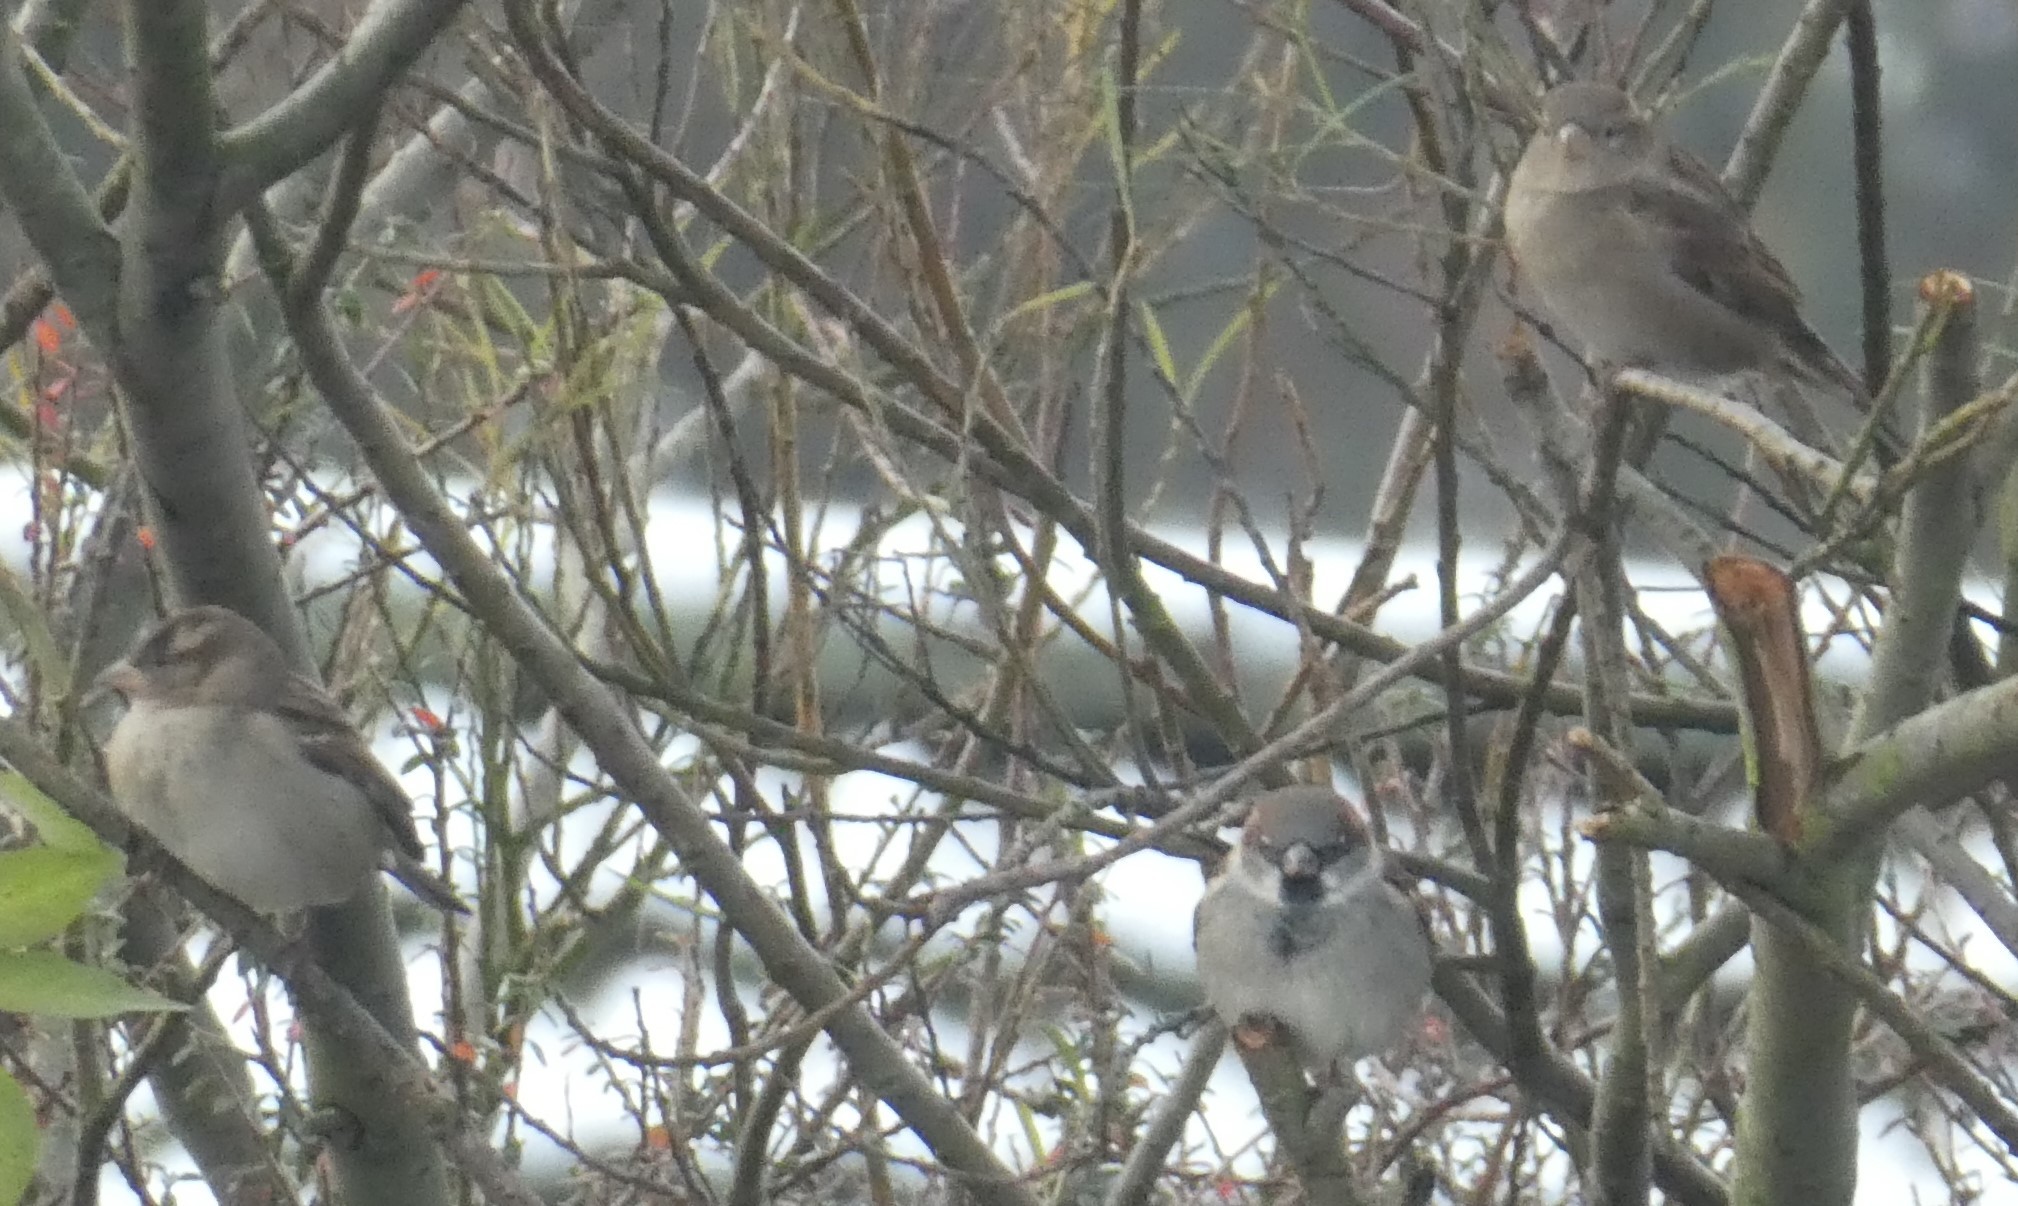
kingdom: Animalia
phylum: Chordata
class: Aves
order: Passeriformes
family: Passeridae
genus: Passer
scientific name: Passer domesticus
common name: House sparrow
